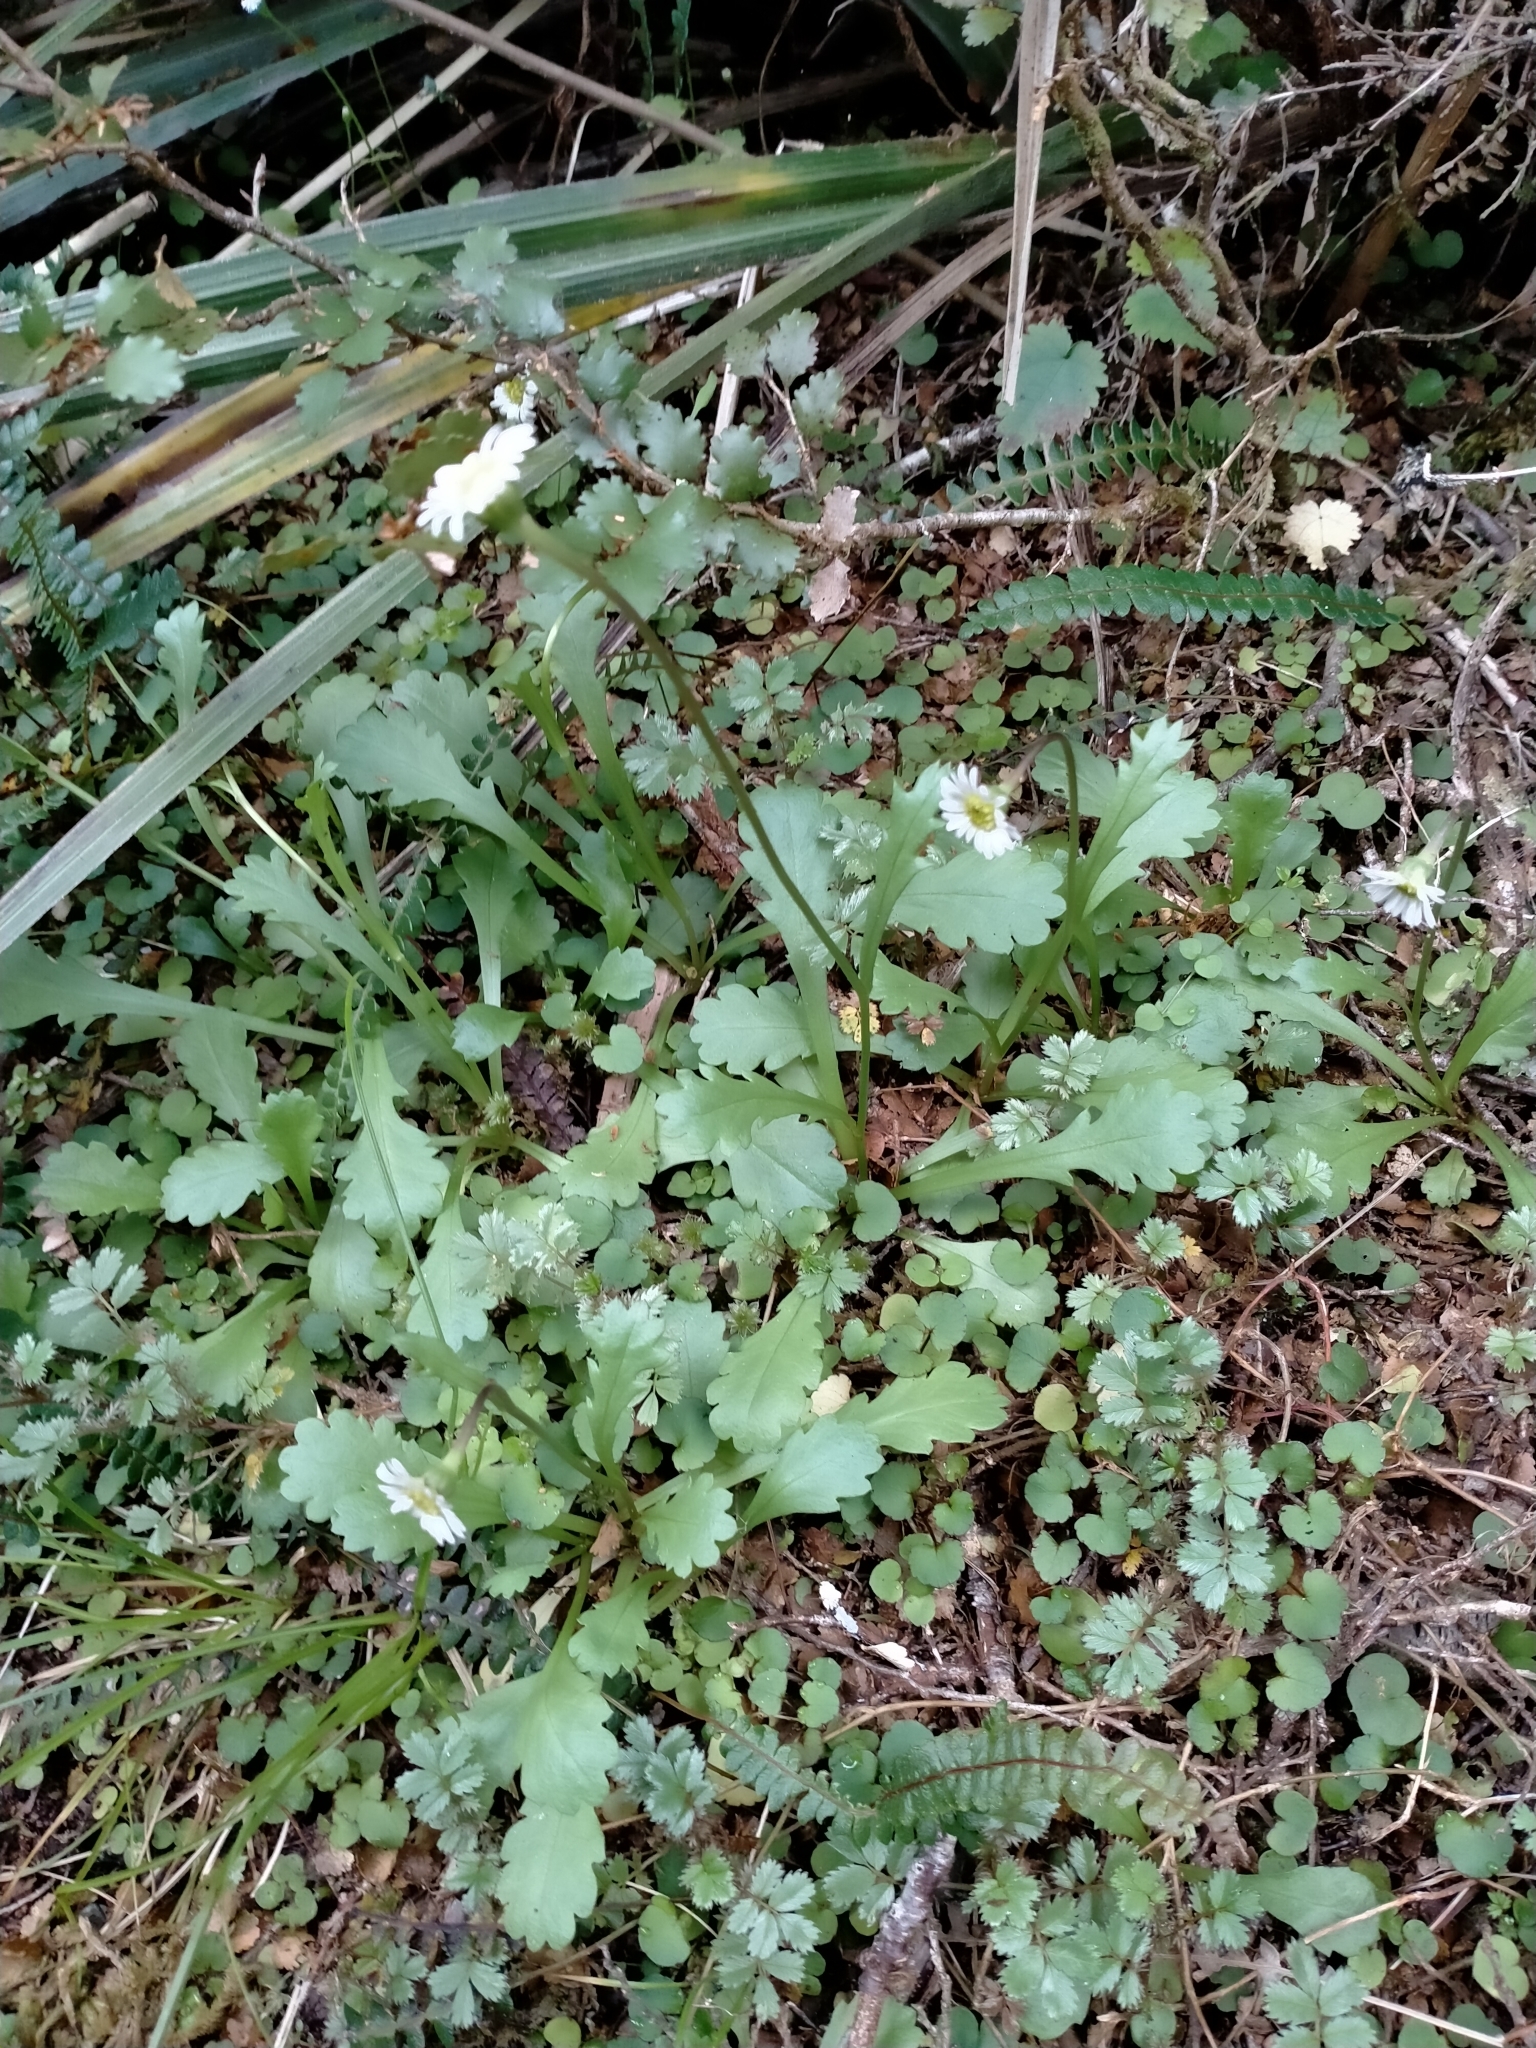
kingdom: Plantae
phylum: Tracheophyta
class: Magnoliopsida
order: Asterales
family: Asteraceae
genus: Brachyscome
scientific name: Brachyscome radicata
